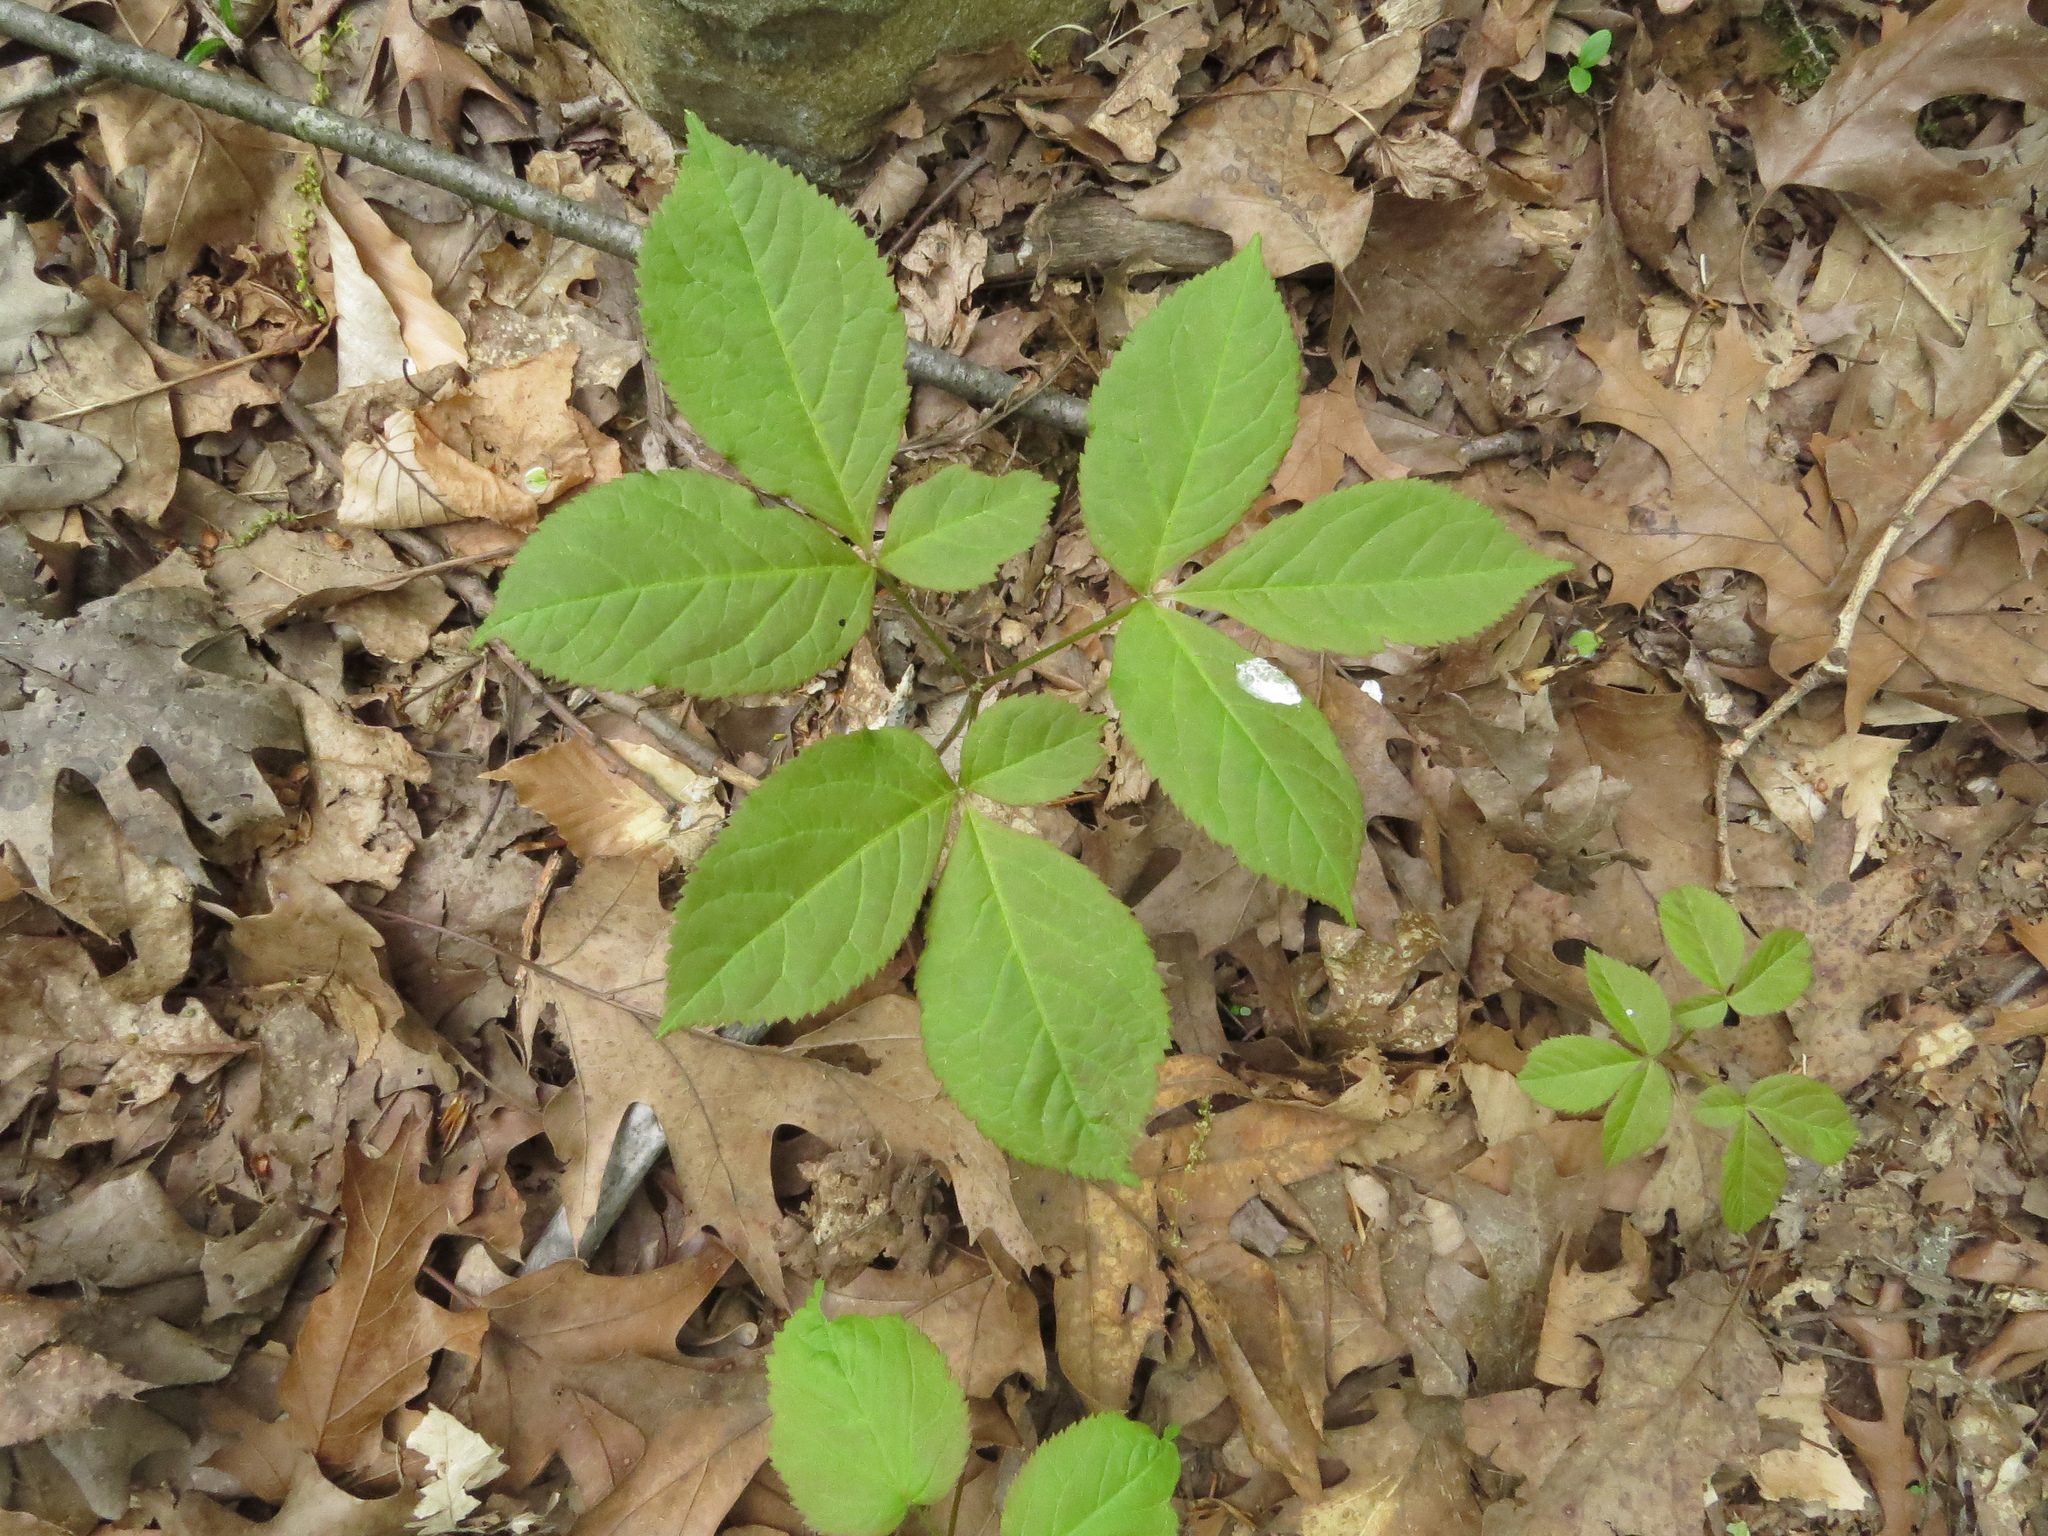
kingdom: Plantae
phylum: Tracheophyta
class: Magnoliopsida
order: Apiales
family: Araliaceae
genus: Aralia
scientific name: Aralia nudicaulis
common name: Wild sarsaparilla
